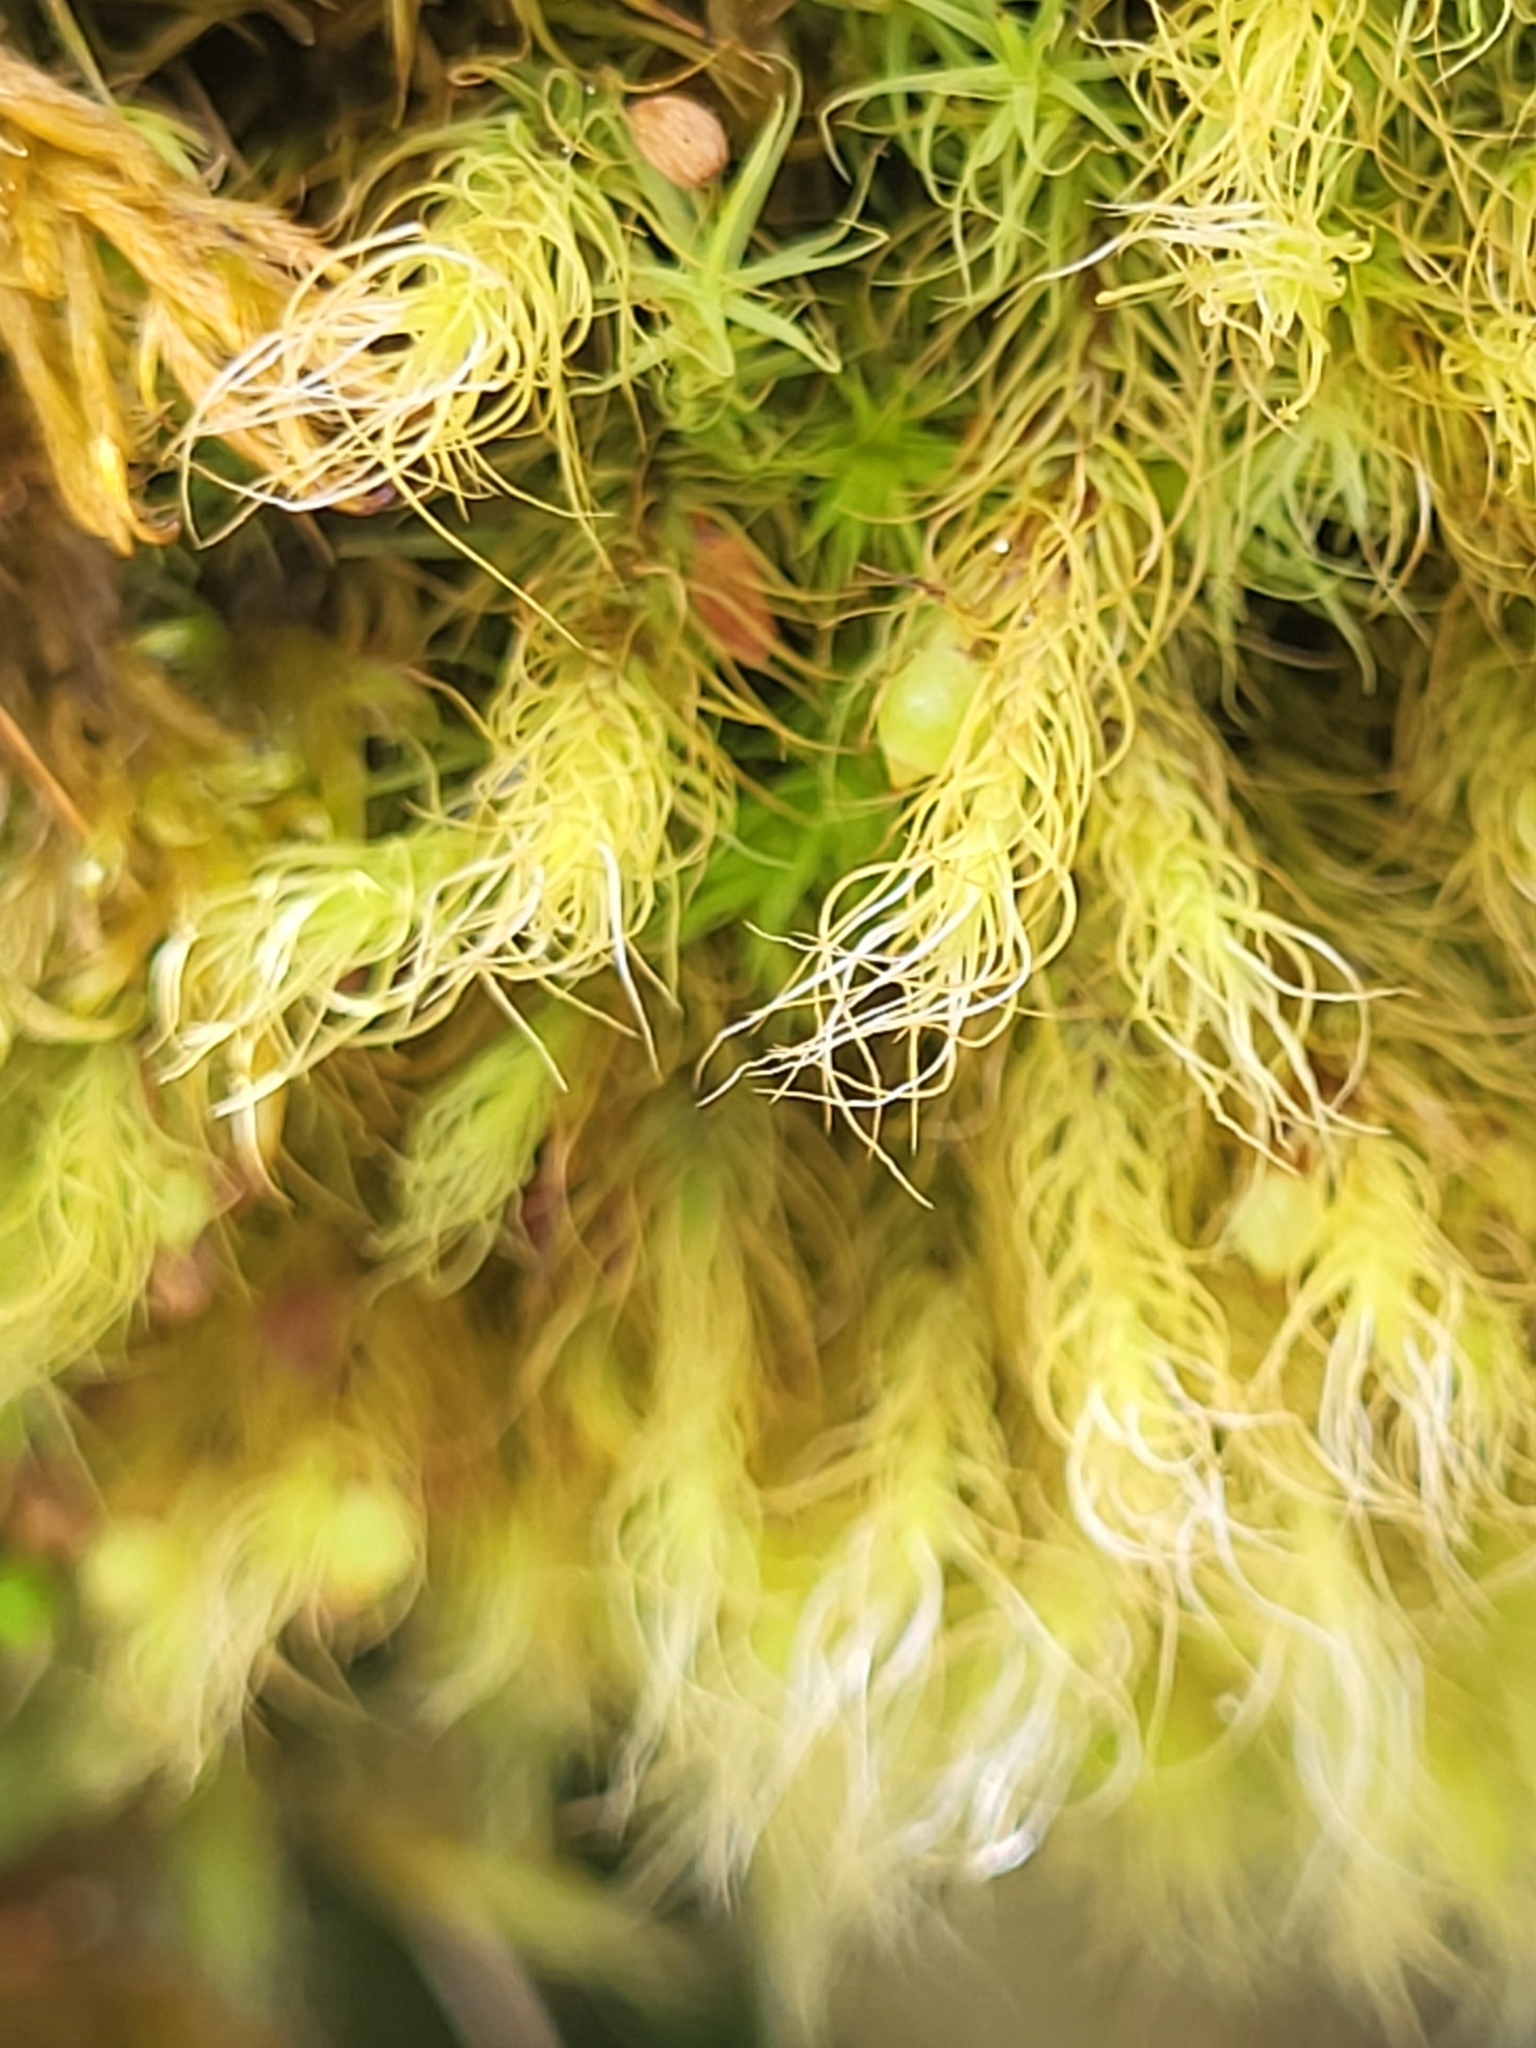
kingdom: Plantae
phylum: Bryophyta
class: Bryopsida
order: Bartramiales
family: Bartramiaceae
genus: Bartramia
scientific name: Bartramia halleriana
